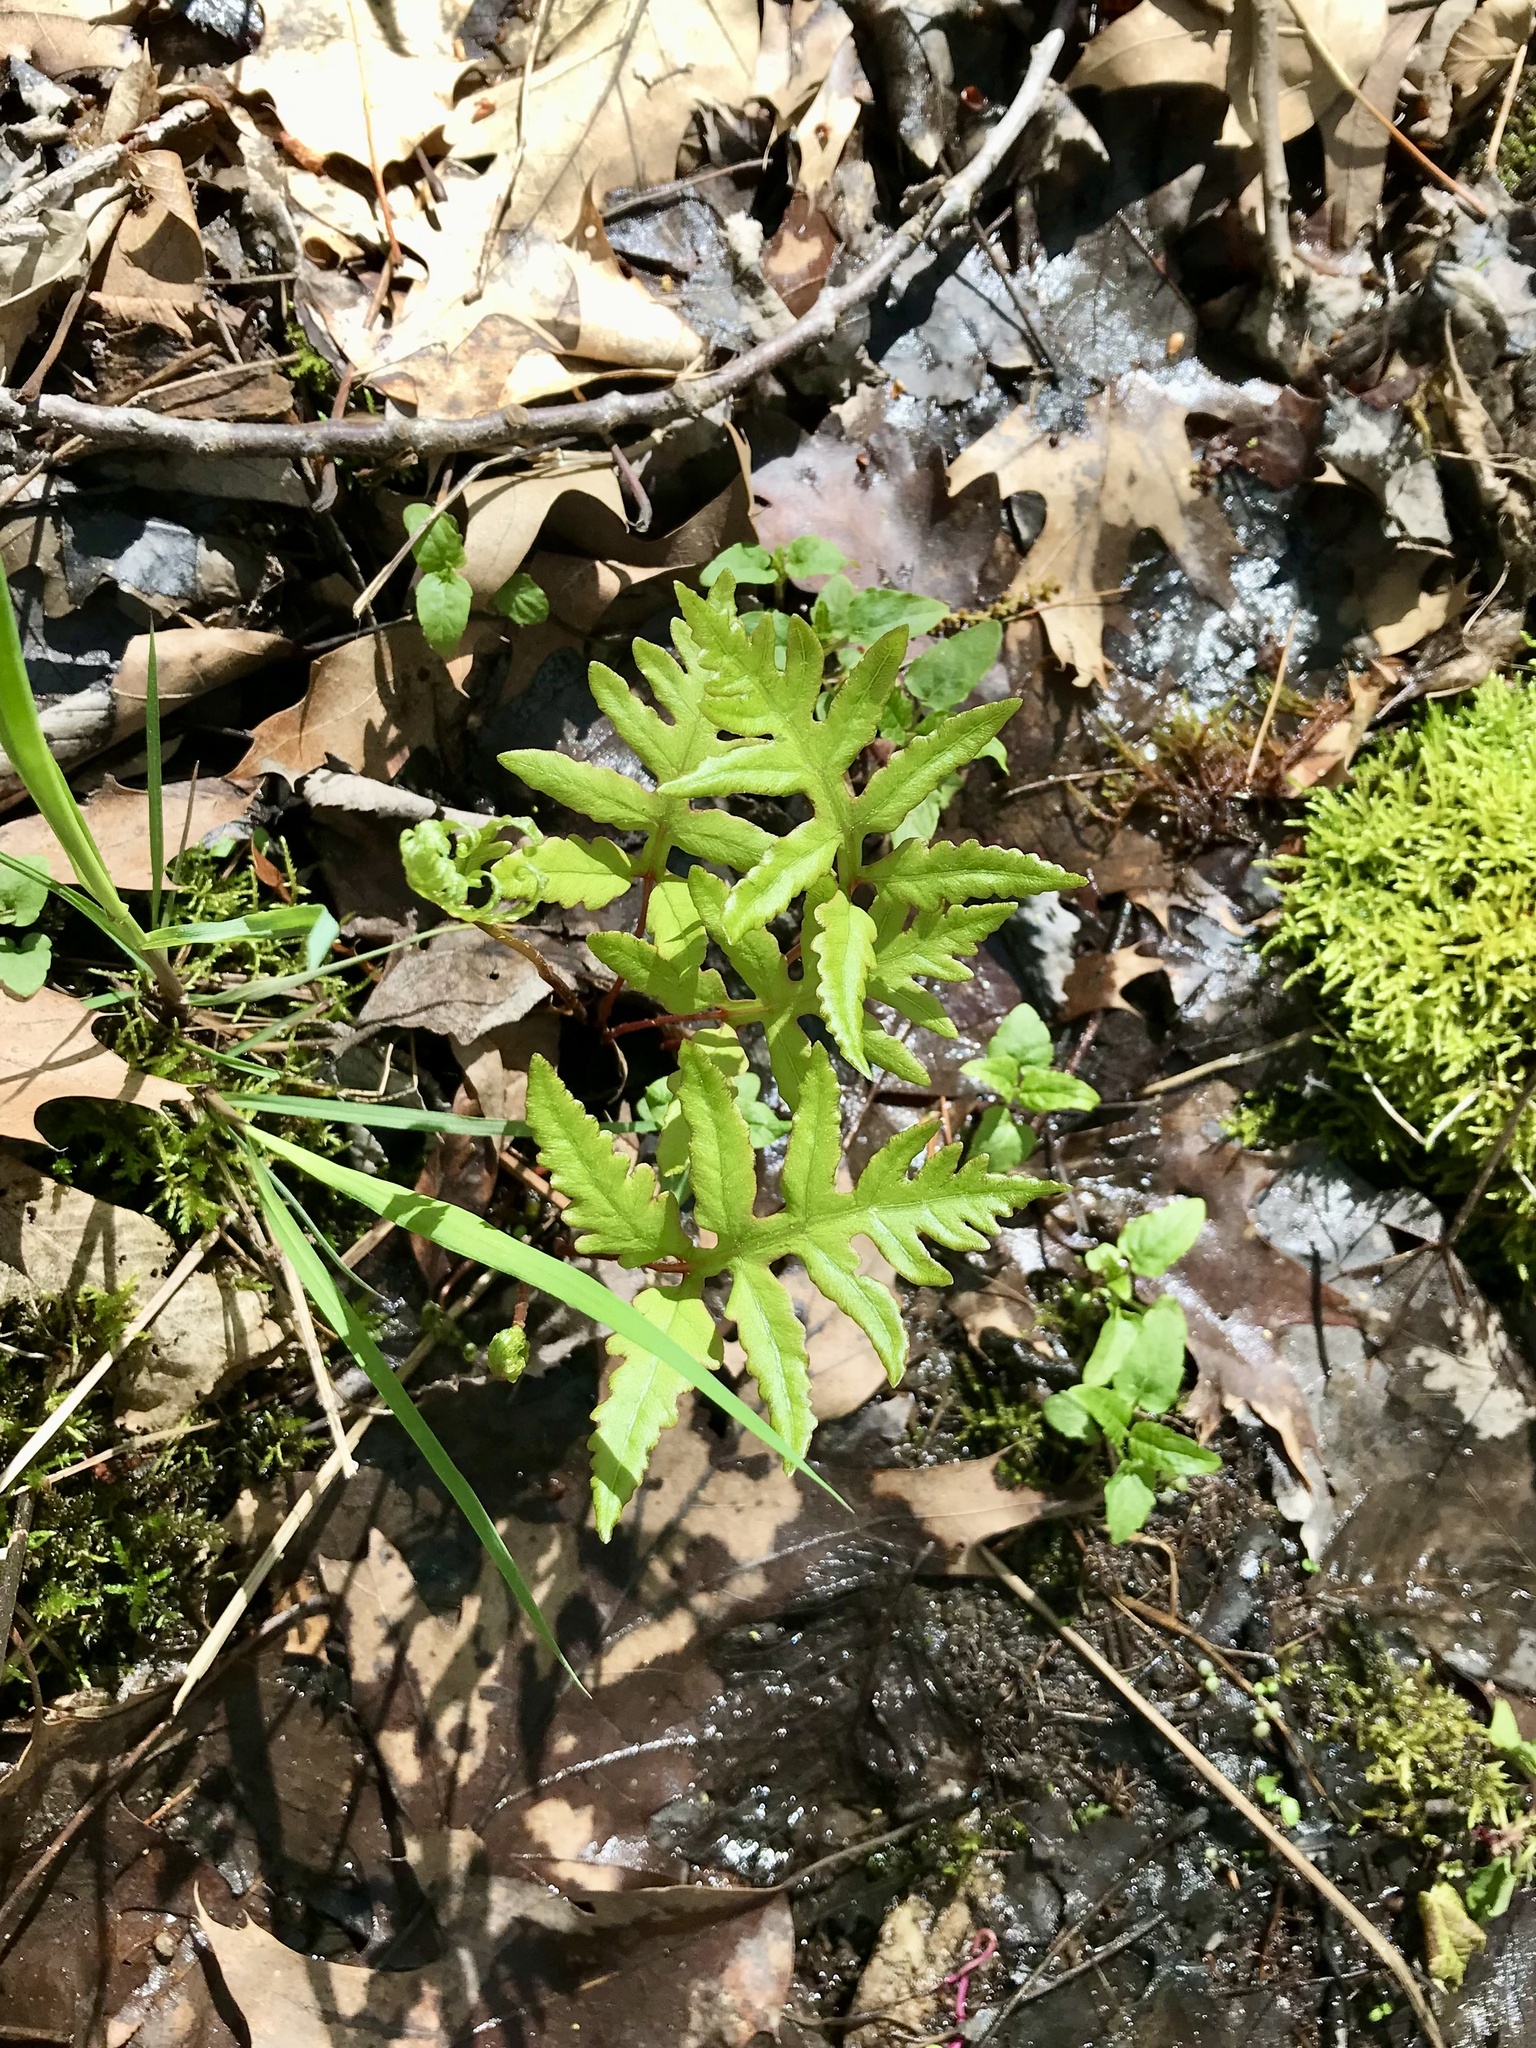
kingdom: Plantae
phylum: Tracheophyta
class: Polypodiopsida
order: Polypodiales
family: Onocleaceae
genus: Onoclea
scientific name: Onoclea sensibilis
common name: Sensitive fern
